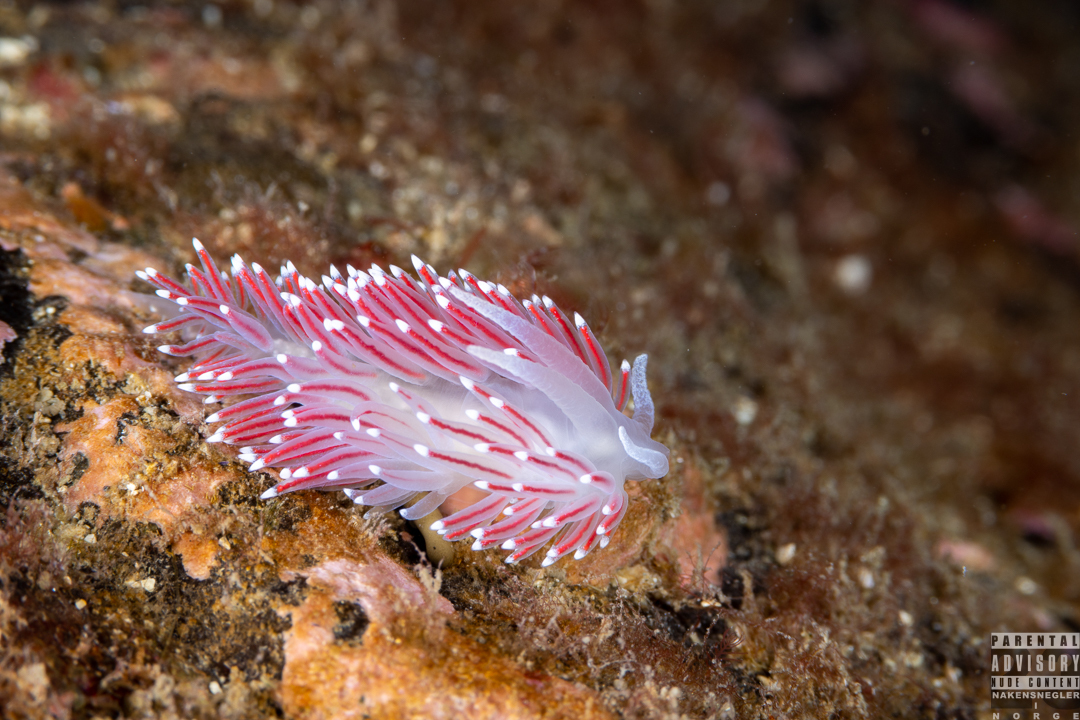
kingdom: Animalia
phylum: Mollusca
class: Gastropoda
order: Nudibranchia
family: Flabellinidae
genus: Carronella
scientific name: Carronella pellucida
